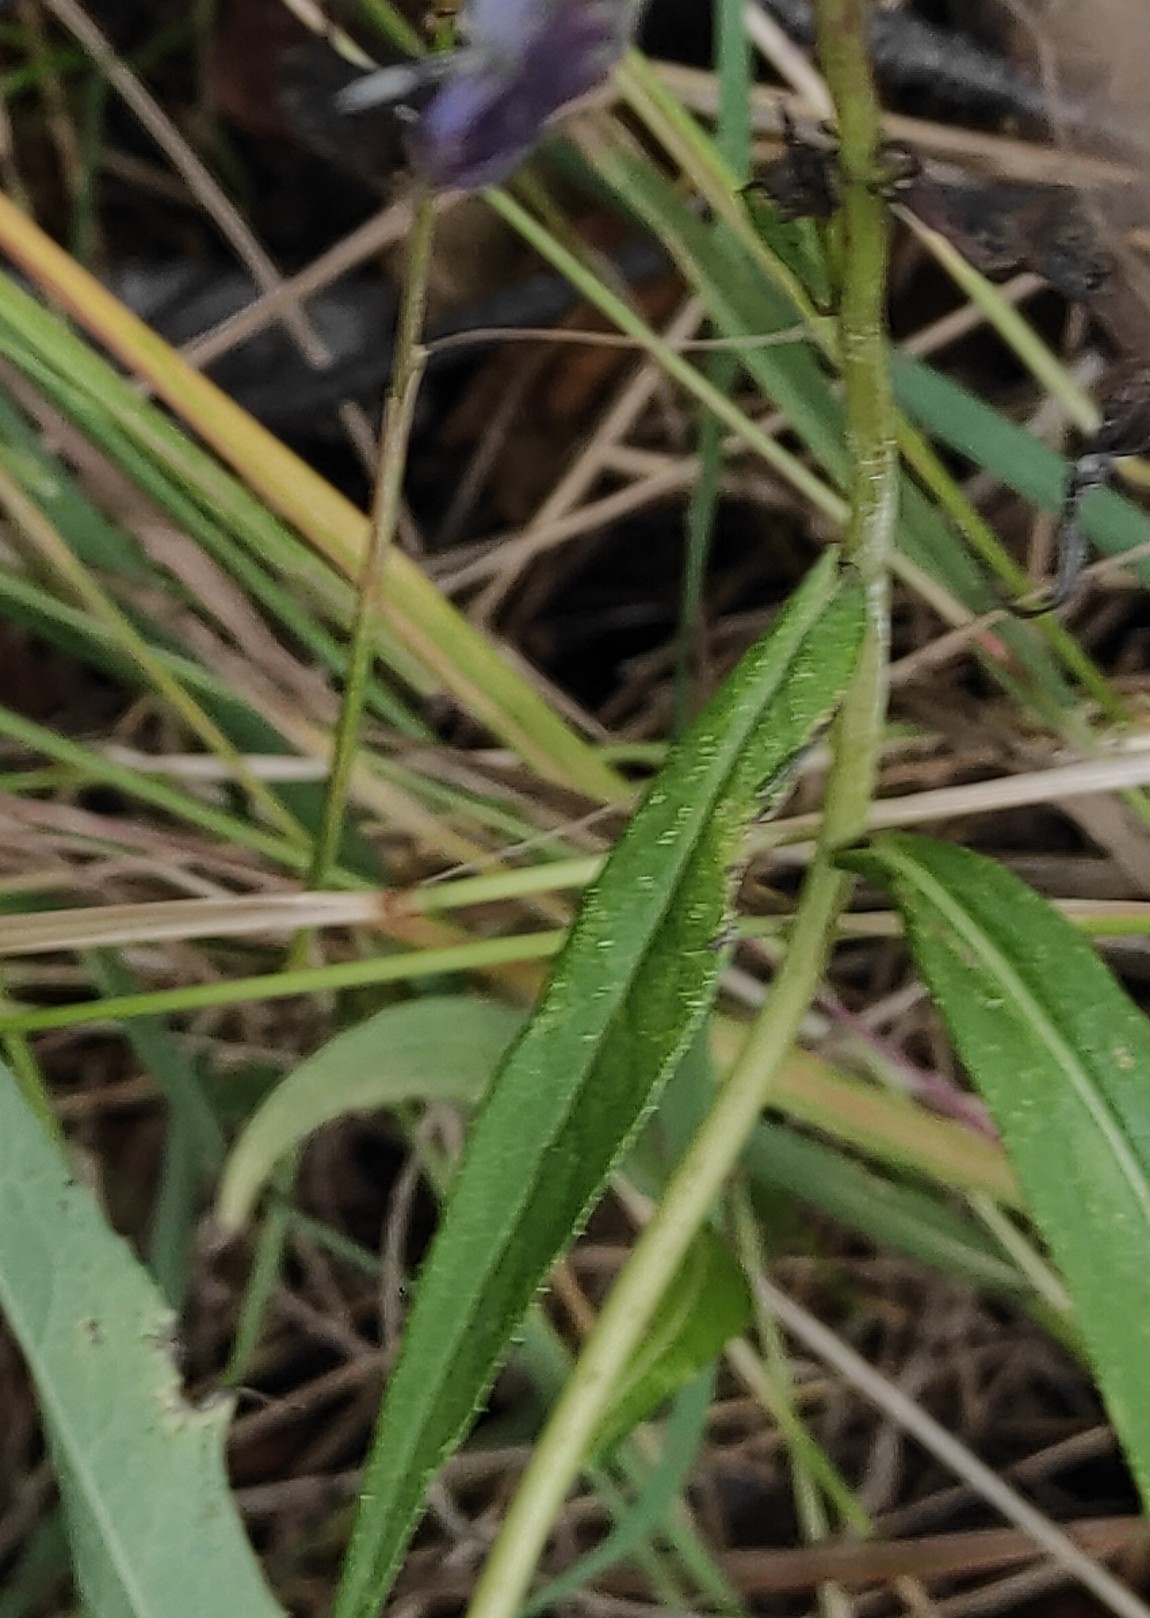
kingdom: Plantae
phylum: Tracheophyta
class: Magnoliopsida
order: Asterales
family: Asteraceae
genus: Lactuca
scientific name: Lactuca sibirica
